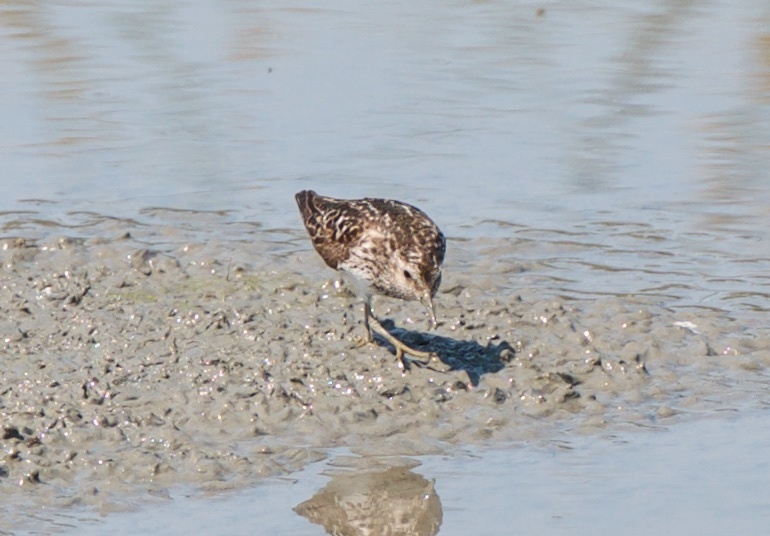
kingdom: Animalia
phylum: Chordata
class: Aves
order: Charadriiformes
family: Scolopacidae
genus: Calidris
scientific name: Calidris minutilla
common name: Least sandpiper
